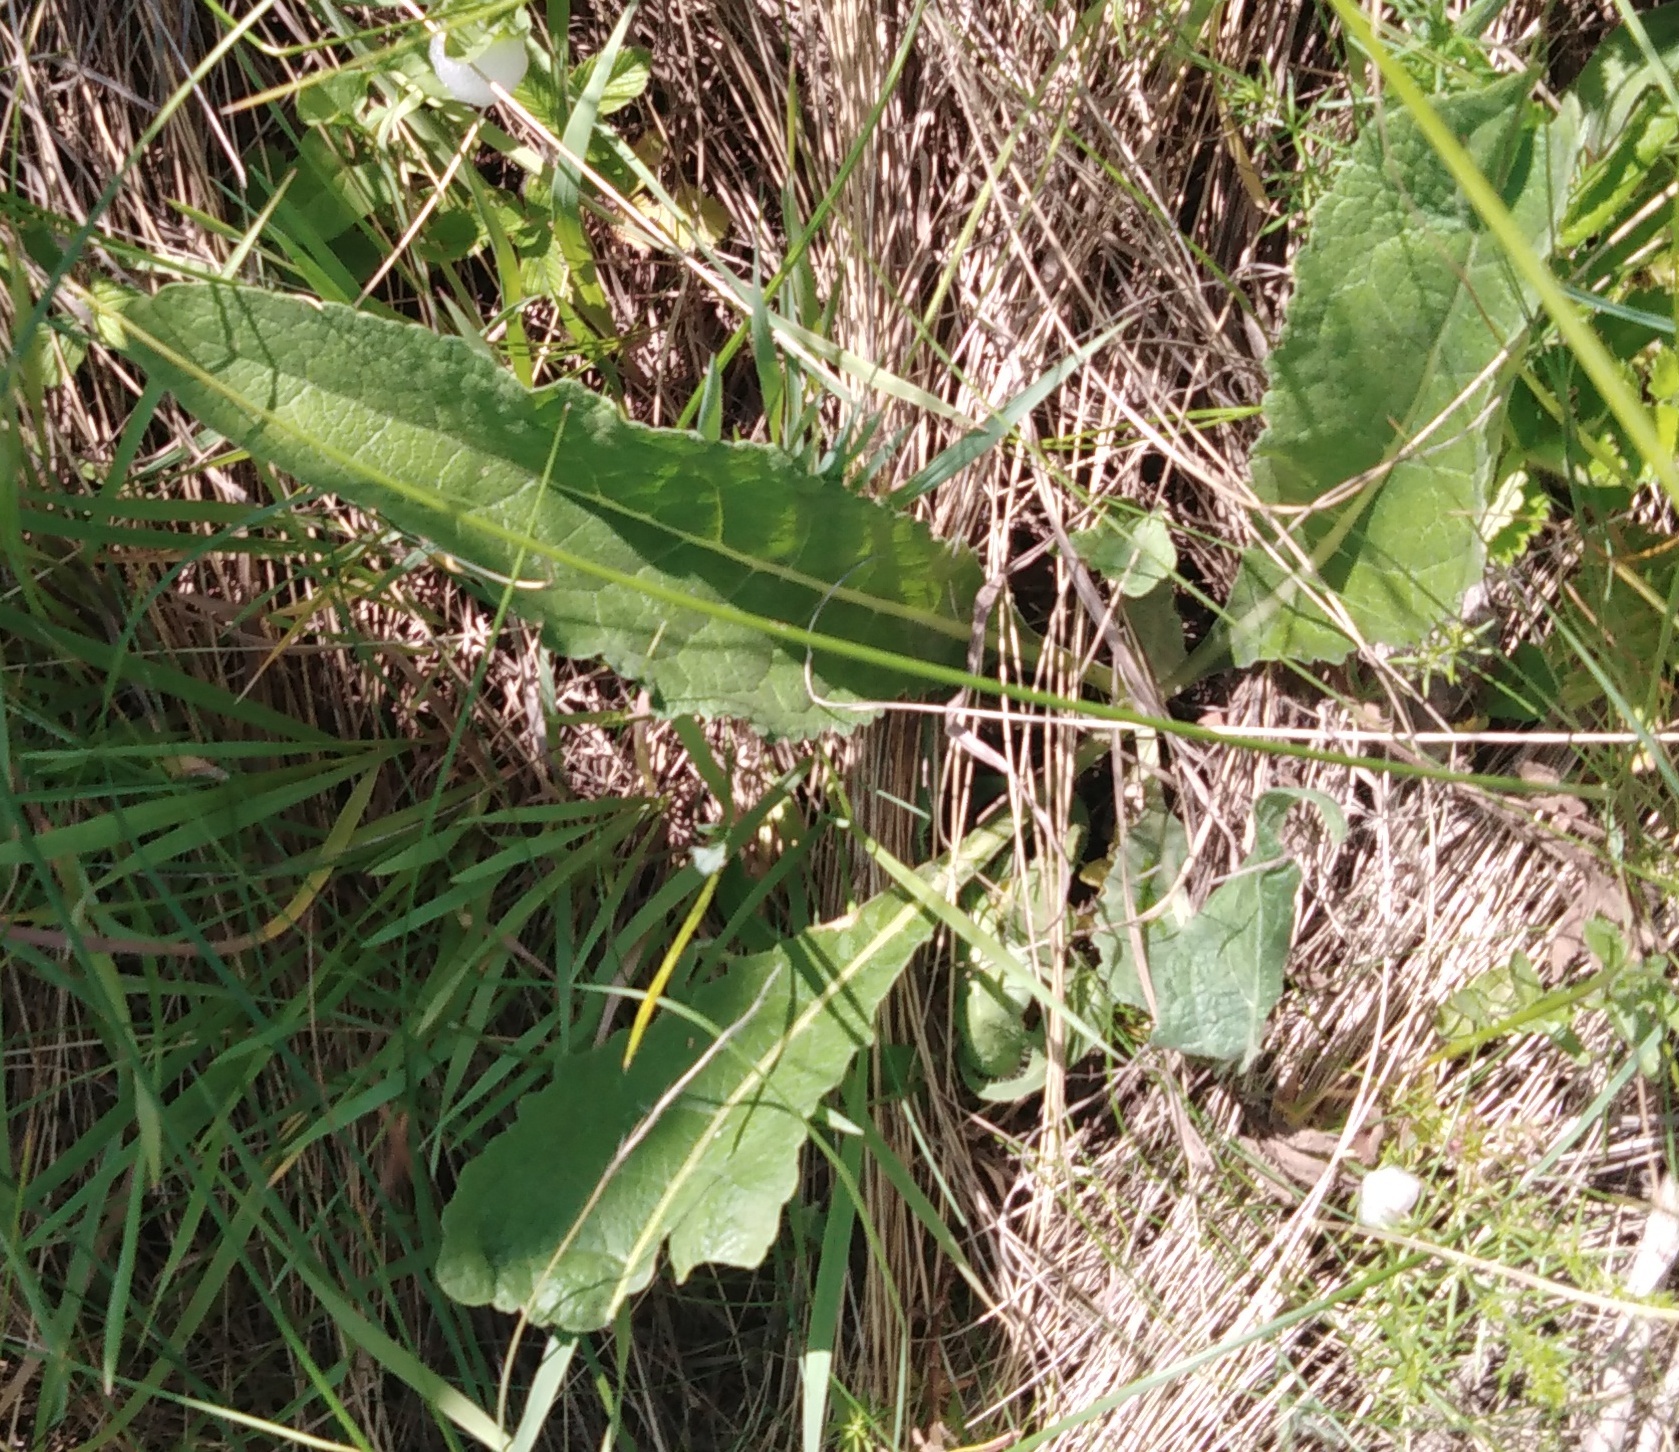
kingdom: Plantae
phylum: Tracheophyta
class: Magnoliopsida
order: Lamiales
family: Scrophulariaceae
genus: Verbascum
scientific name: Verbascum lychnitis
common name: White mullein
